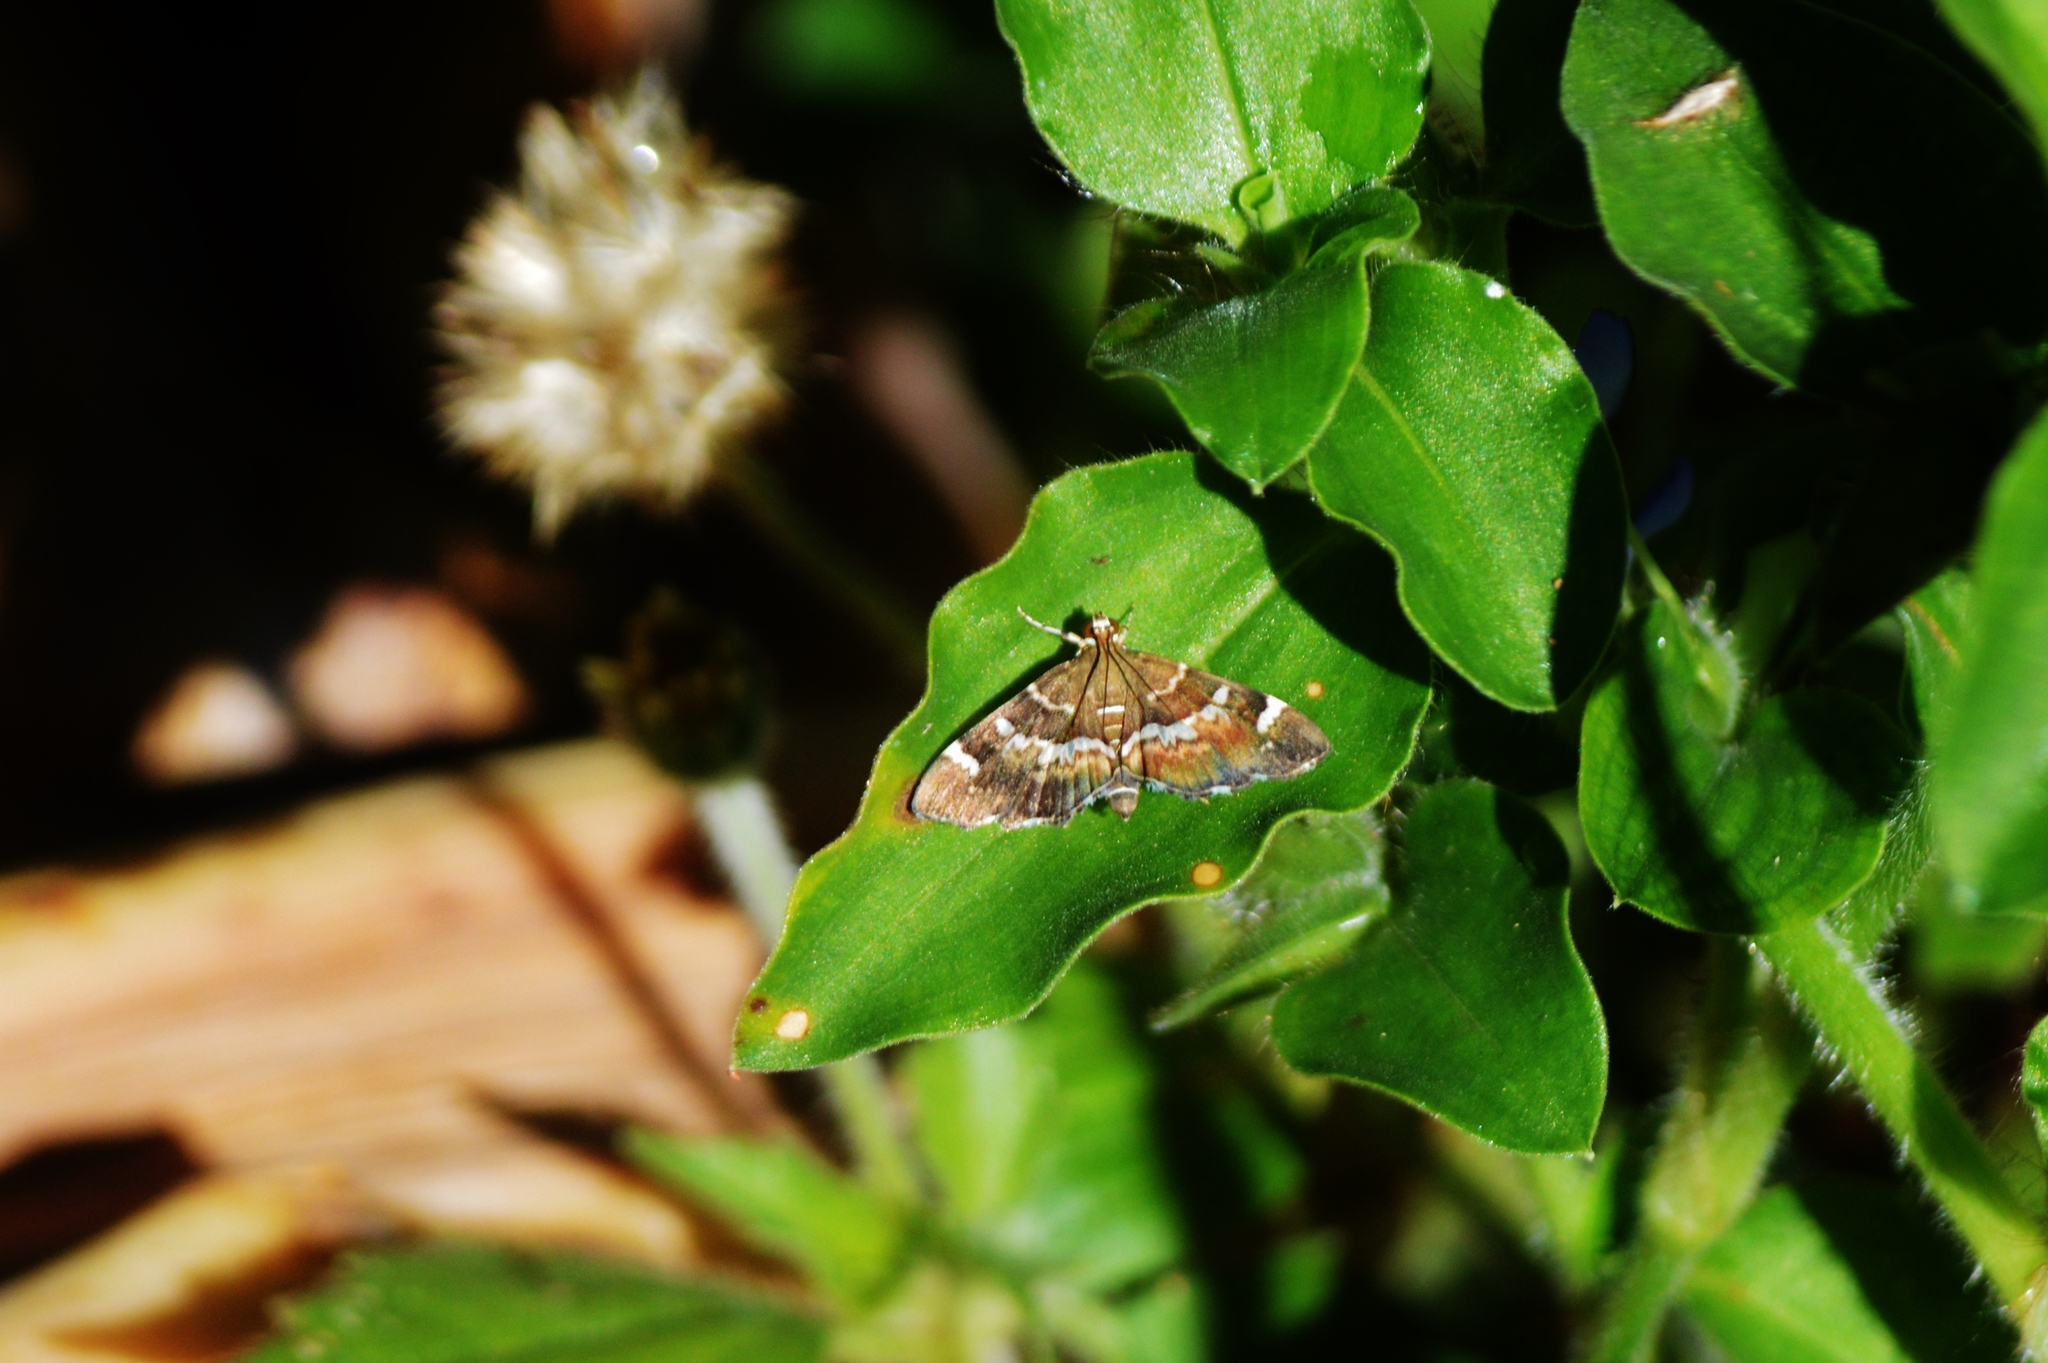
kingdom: Animalia
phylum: Arthropoda
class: Insecta
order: Lepidoptera
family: Crambidae
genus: Hymenia
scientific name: Hymenia perspectalis
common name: Spotted beet webworm
